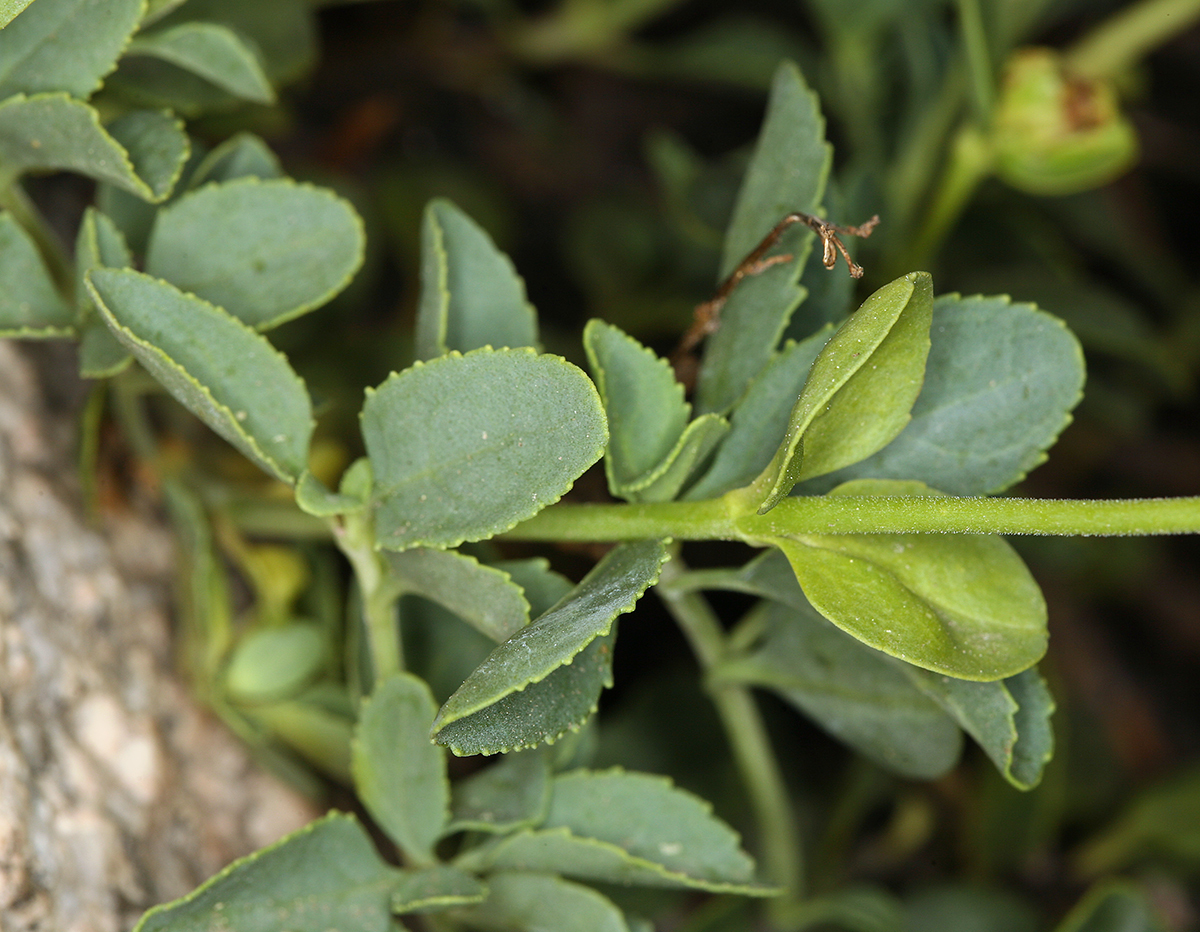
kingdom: Plantae
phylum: Tracheophyta
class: Magnoliopsida
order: Lamiales
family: Plantaginaceae
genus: Penstemon
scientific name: Penstemon newberryi
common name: Mountain-pride
